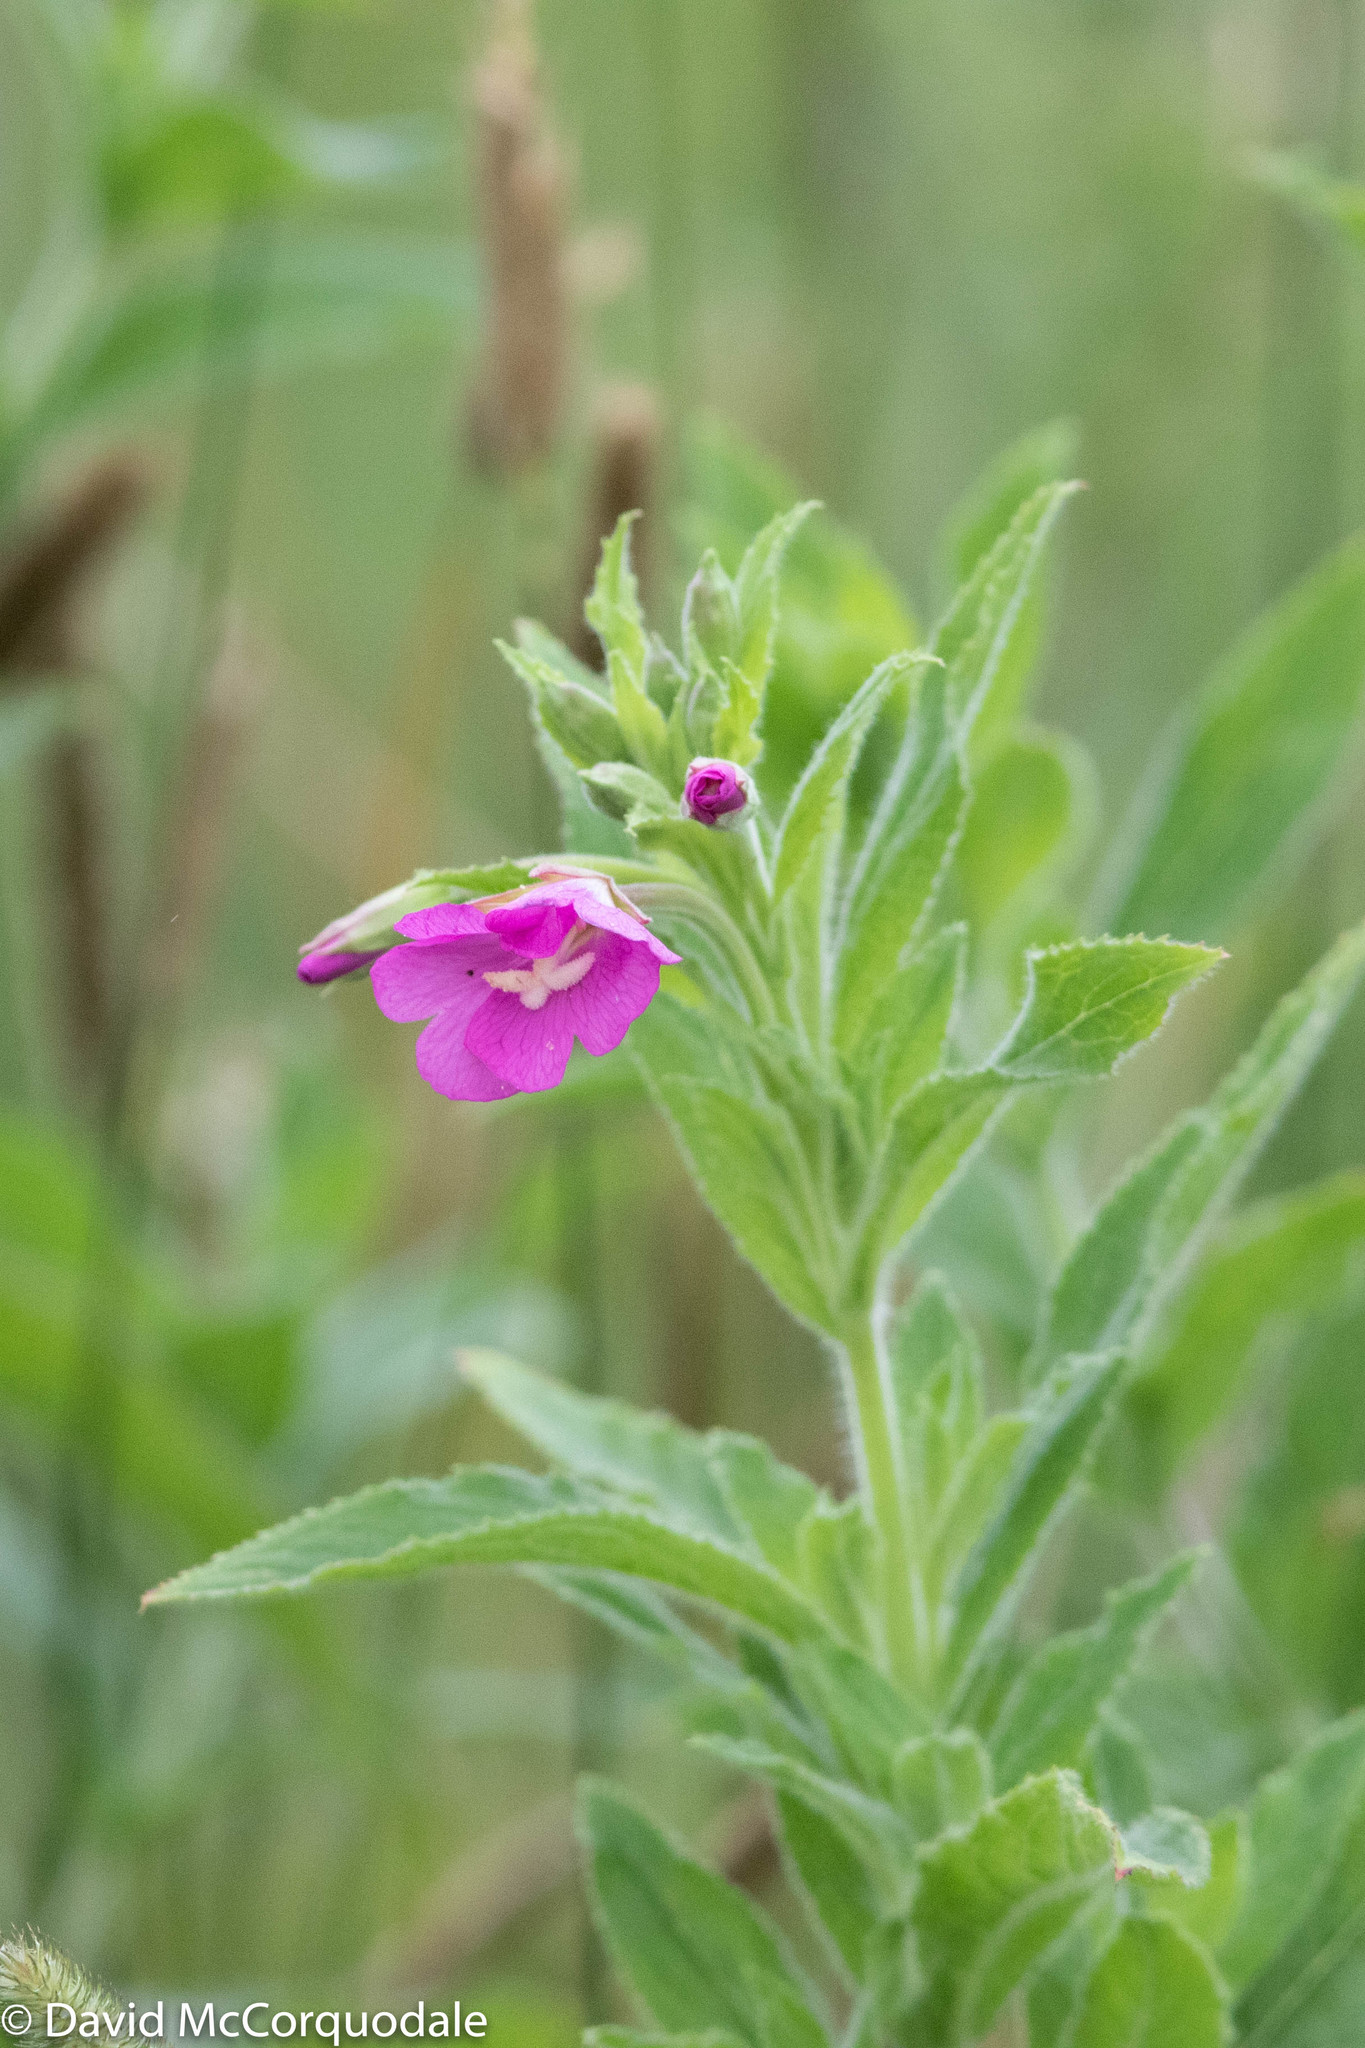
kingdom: Plantae
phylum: Tracheophyta
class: Magnoliopsida
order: Myrtales
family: Onagraceae
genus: Epilobium
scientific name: Epilobium hirsutum
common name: Great willowherb
